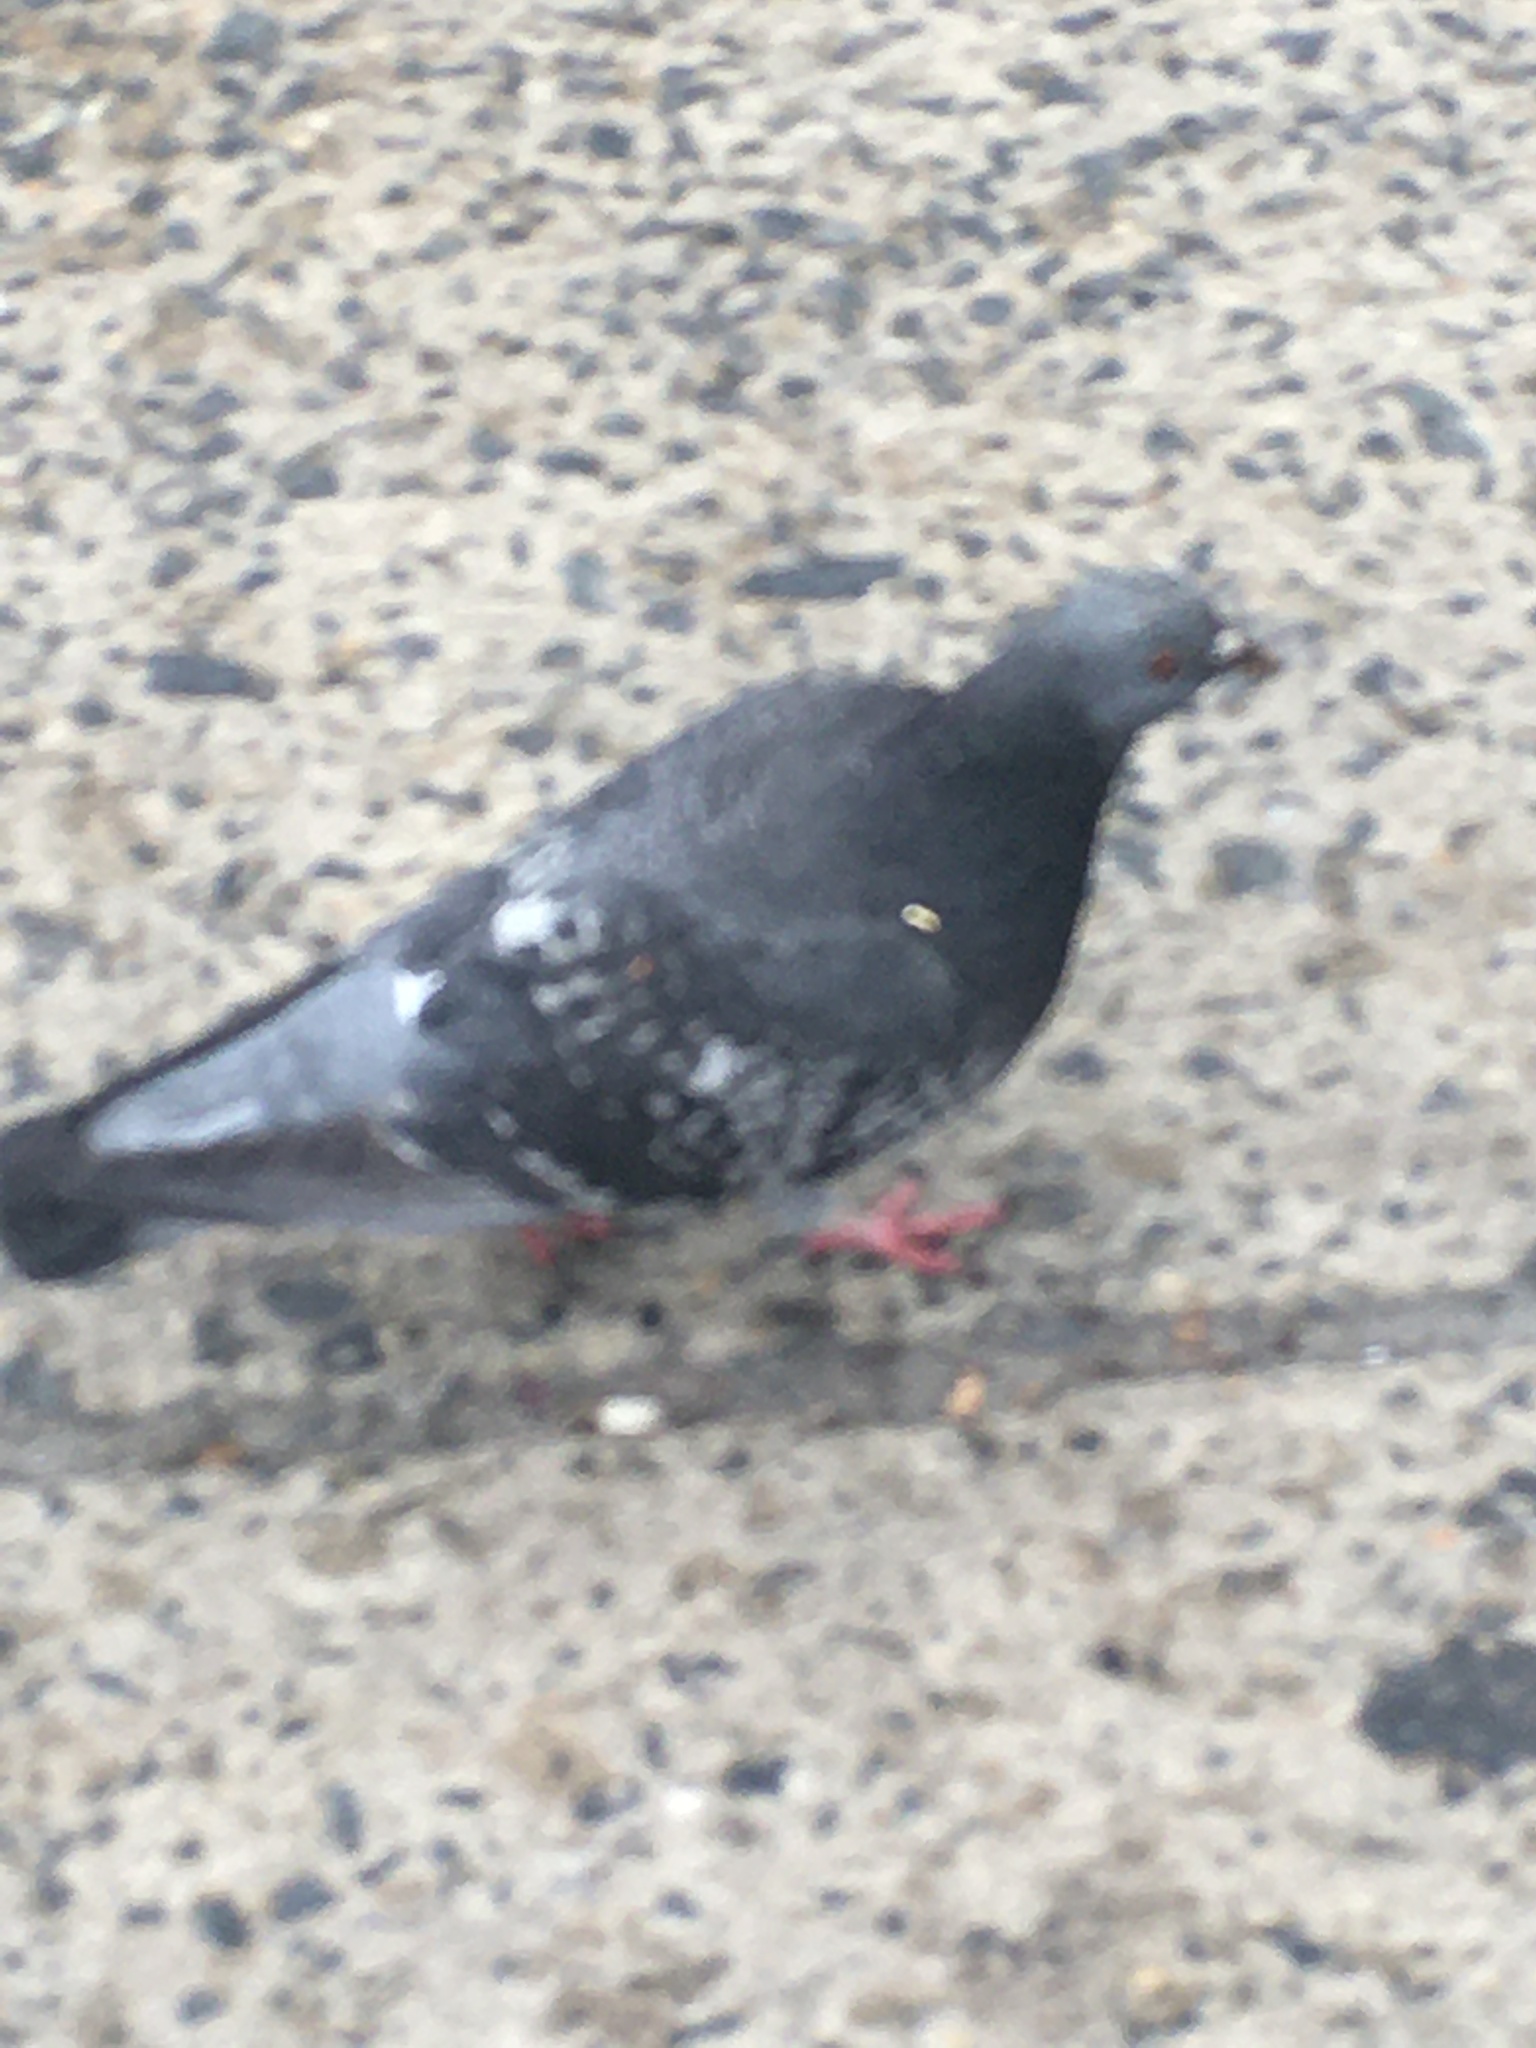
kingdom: Animalia
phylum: Chordata
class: Aves
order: Columbiformes
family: Columbidae
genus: Columba
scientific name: Columba livia
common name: Rock pigeon
